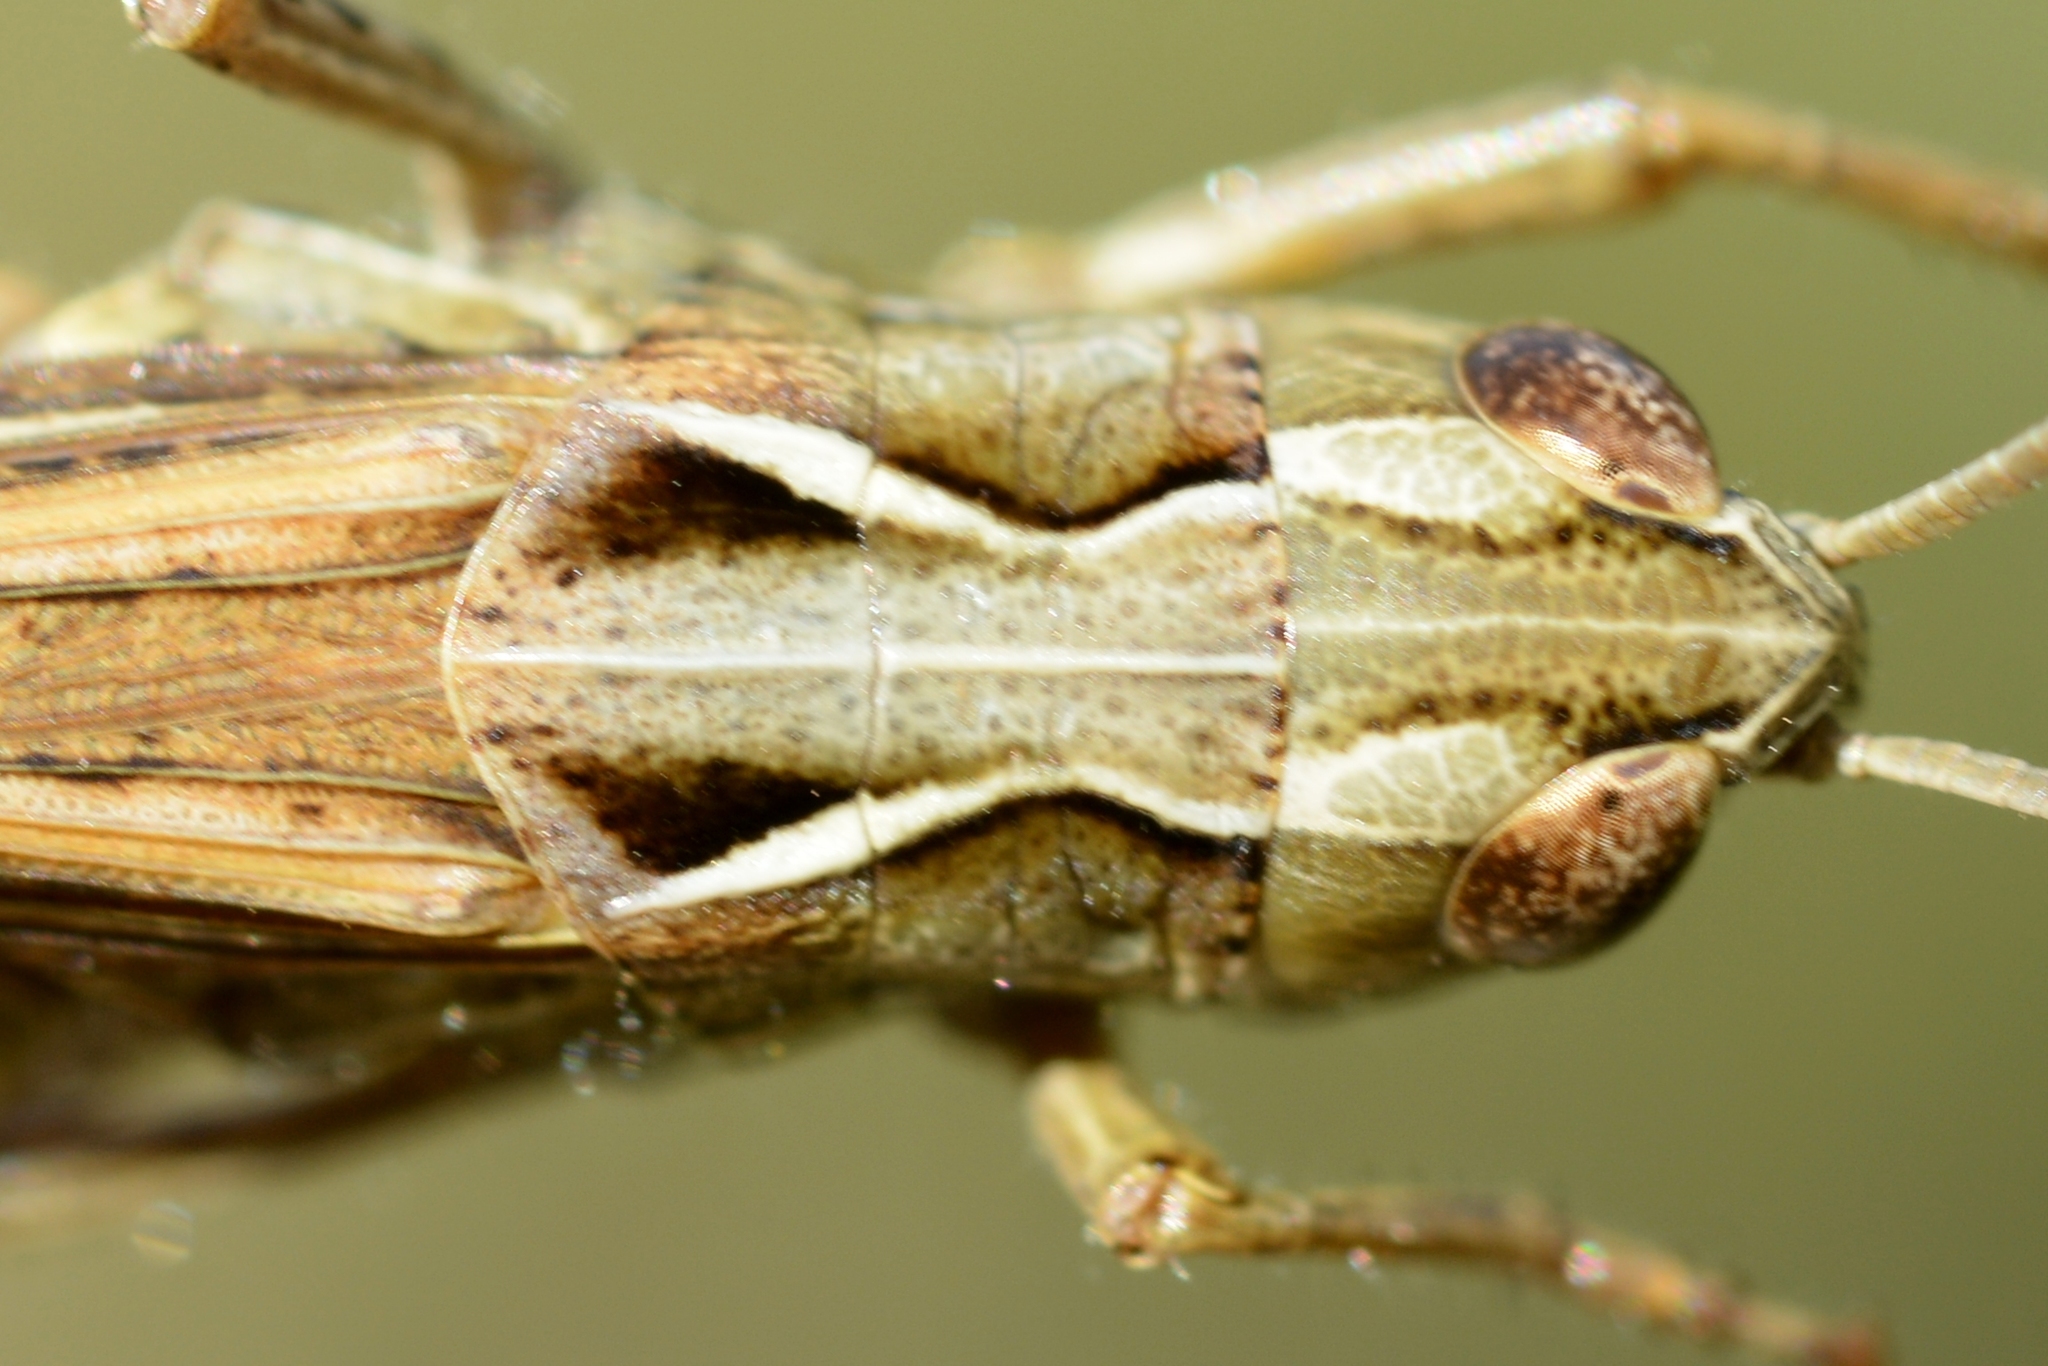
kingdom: Animalia
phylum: Arthropoda
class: Insecta
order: Orthoptera
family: Acrididae
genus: Chorthippus
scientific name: Chorthippus binotatus
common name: Two-marked grasshopper
